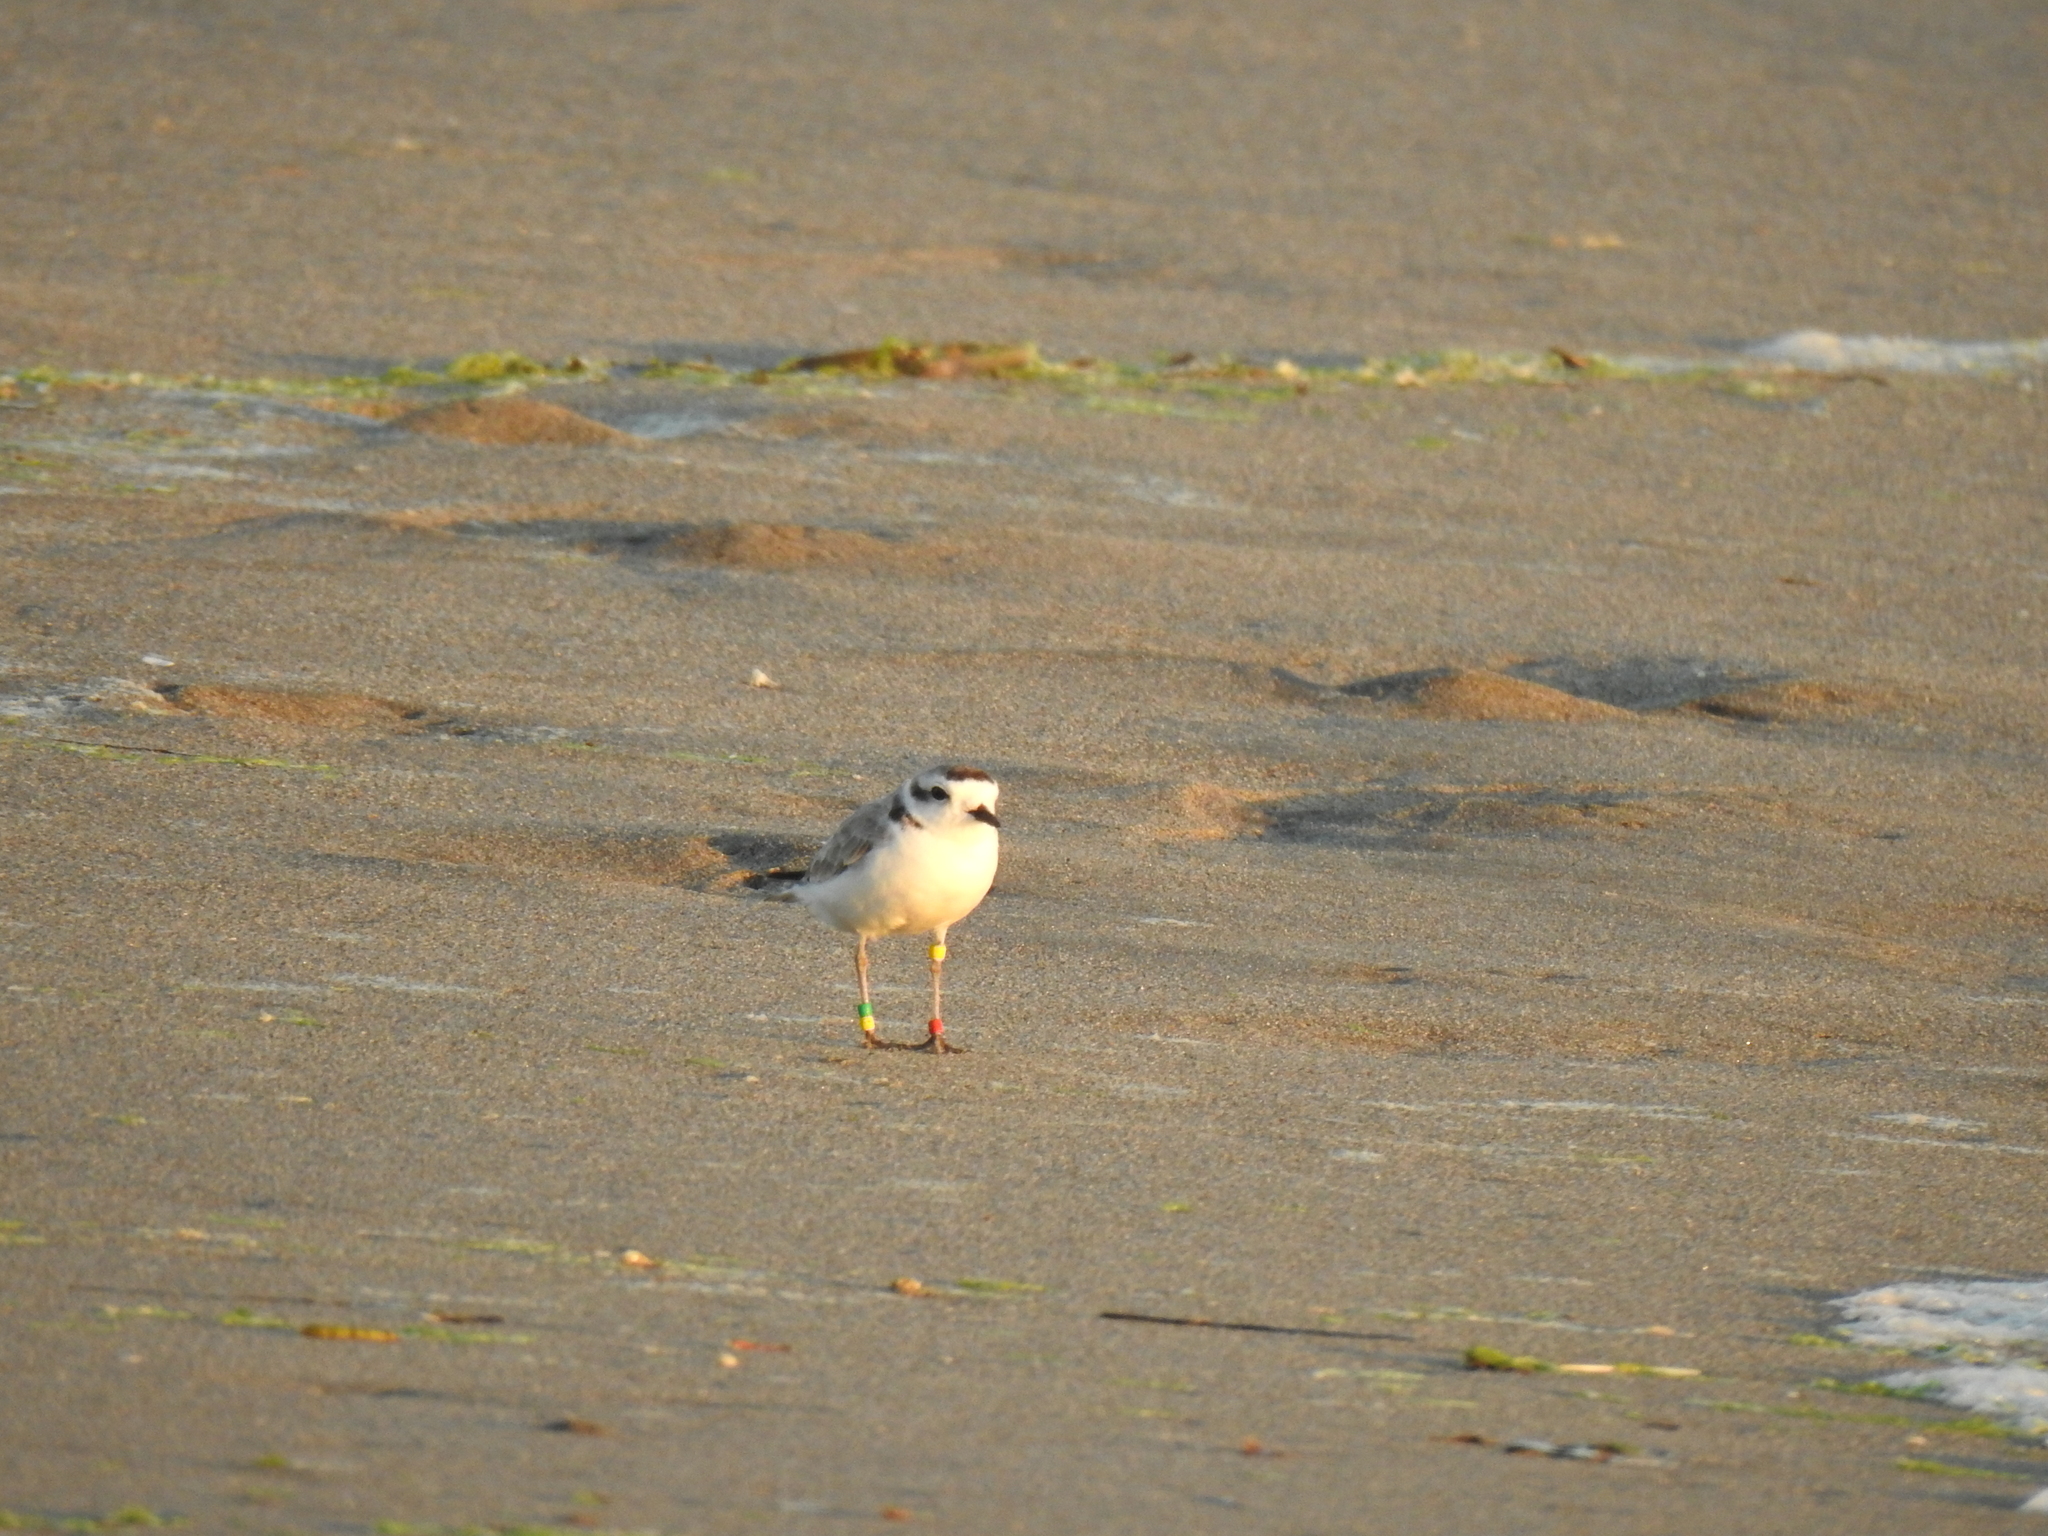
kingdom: Animalia
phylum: Chordata
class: Aves
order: Charadriiformes
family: Charadriidae
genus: Anarhynchus
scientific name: Anarhynchus
